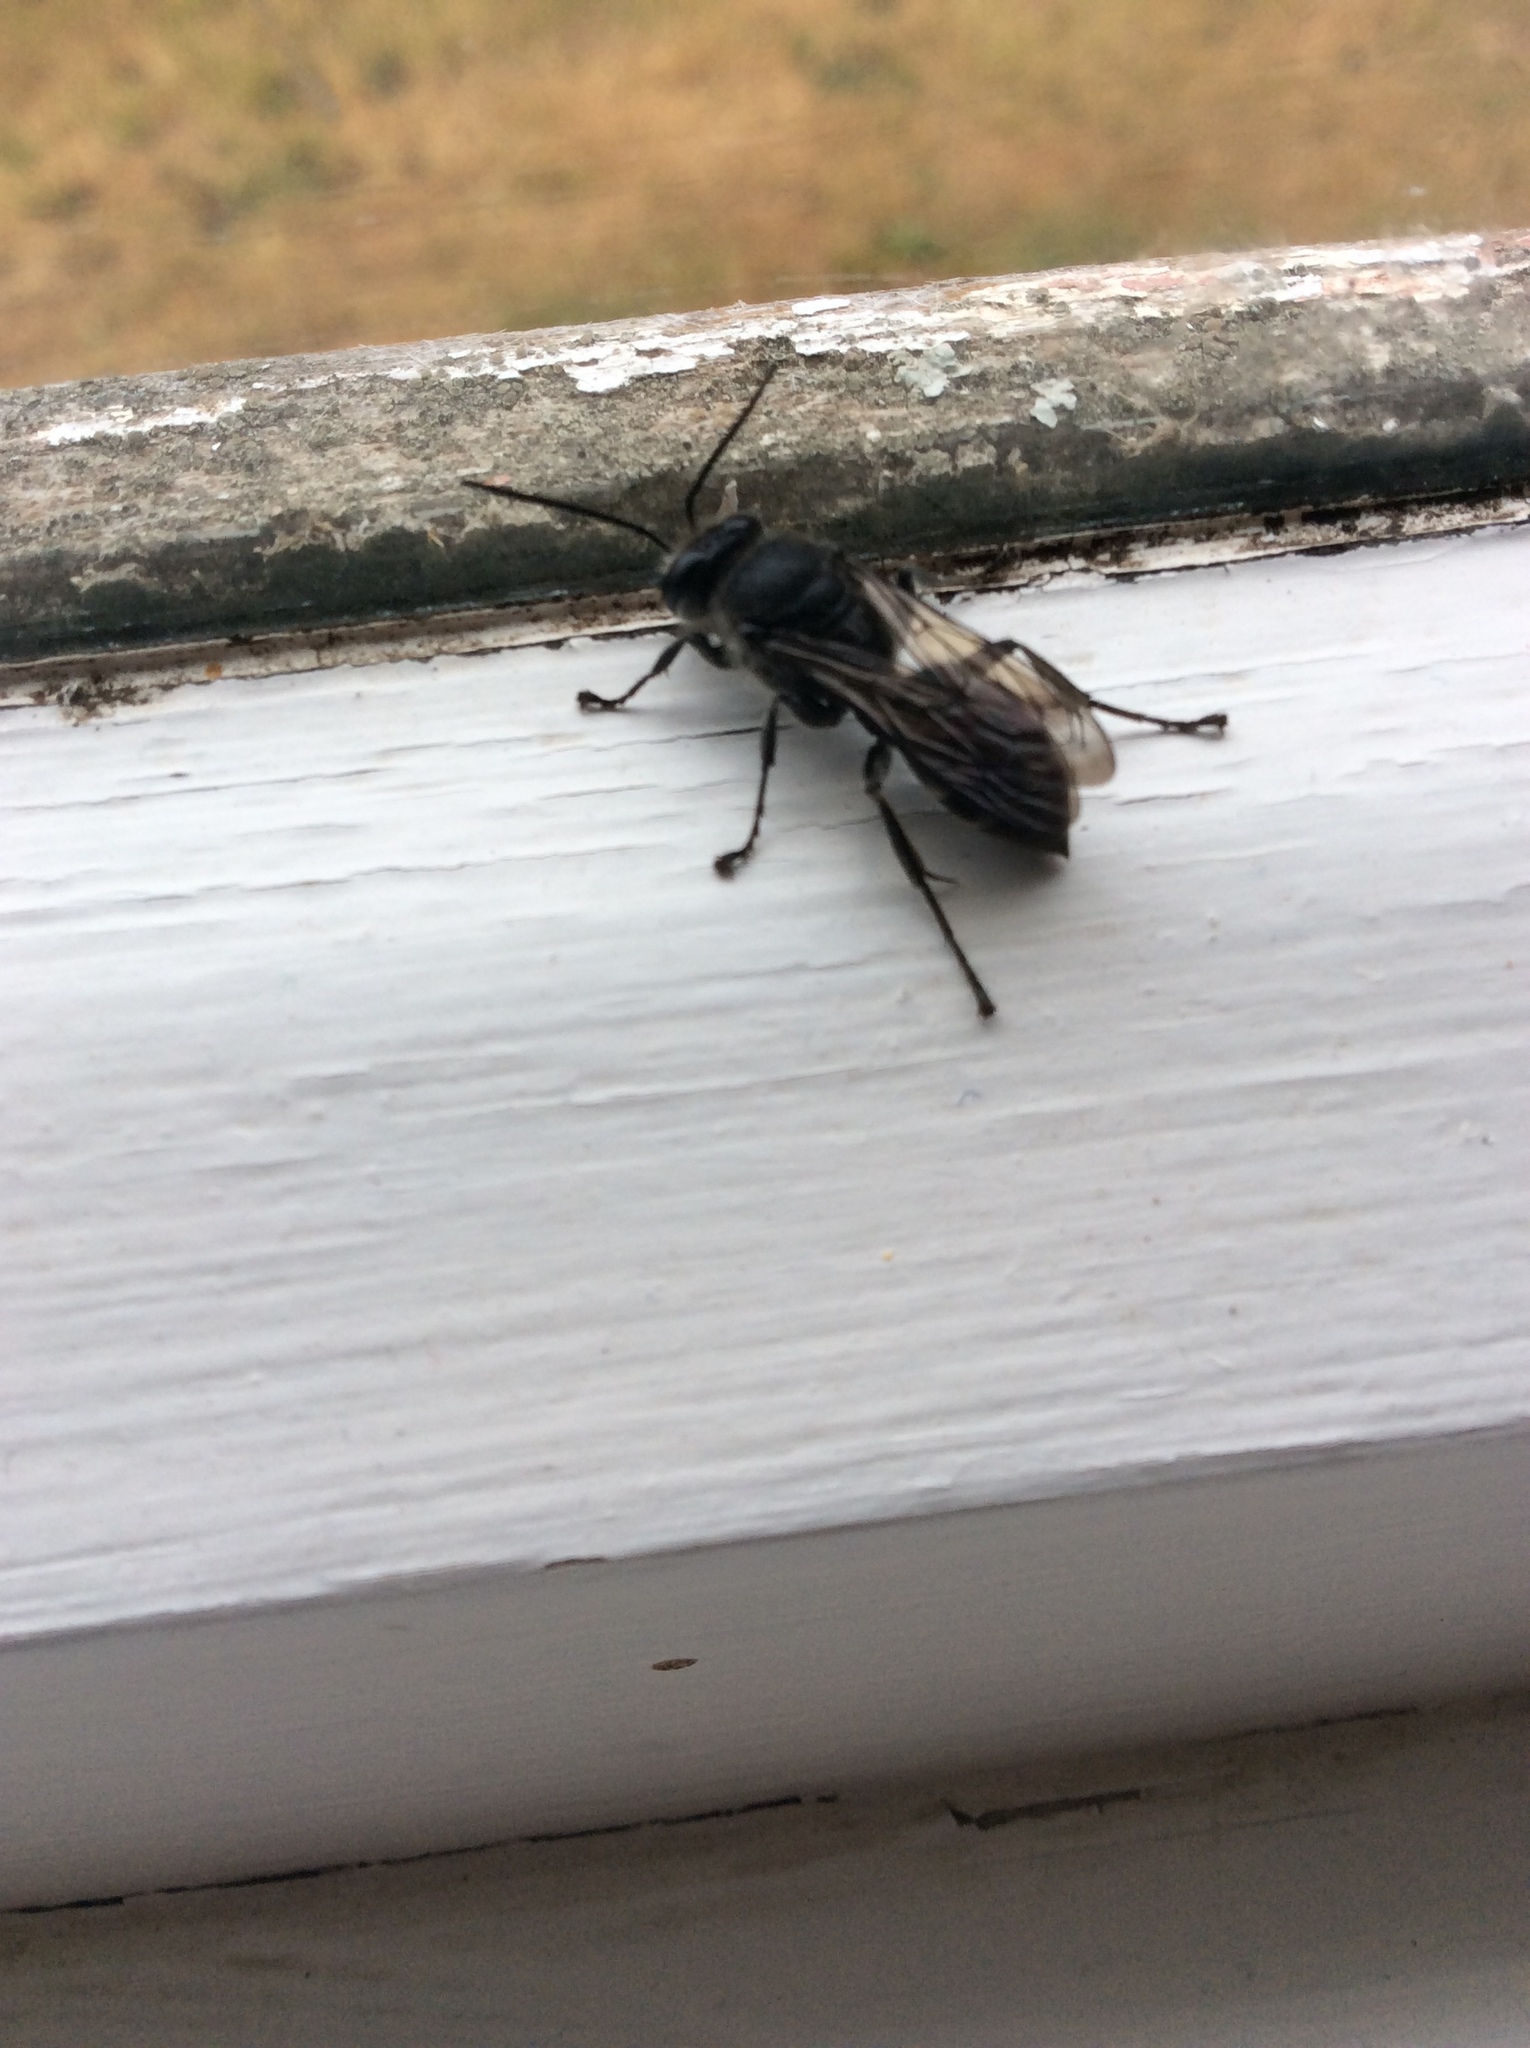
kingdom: Animalia
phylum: Arthropoda
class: Insecta
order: Hymenoptera
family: Crabronidae
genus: Pison
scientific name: Pison spinolae
